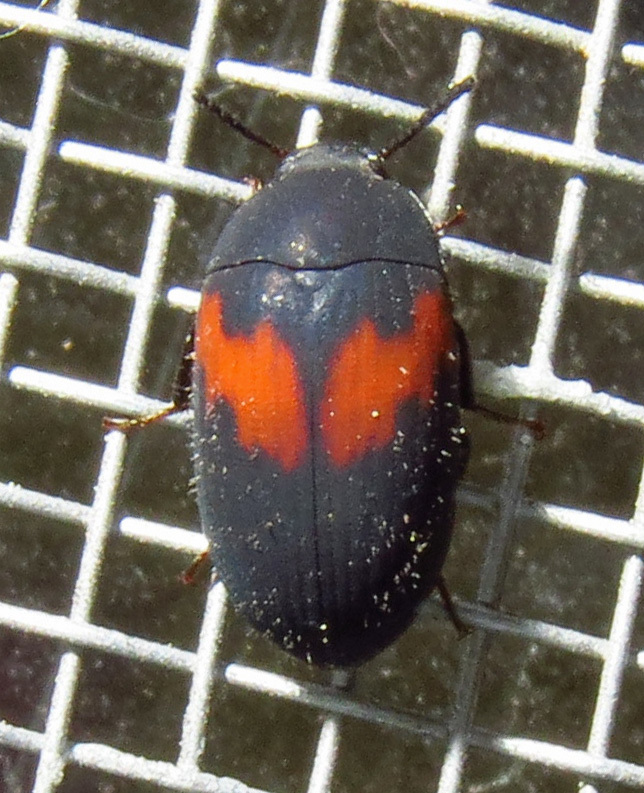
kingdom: Animalia
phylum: Arthropoda
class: Insecta
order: Coleoptera
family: Tenebrionidae
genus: Platydema
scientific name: Platydema elliptica
